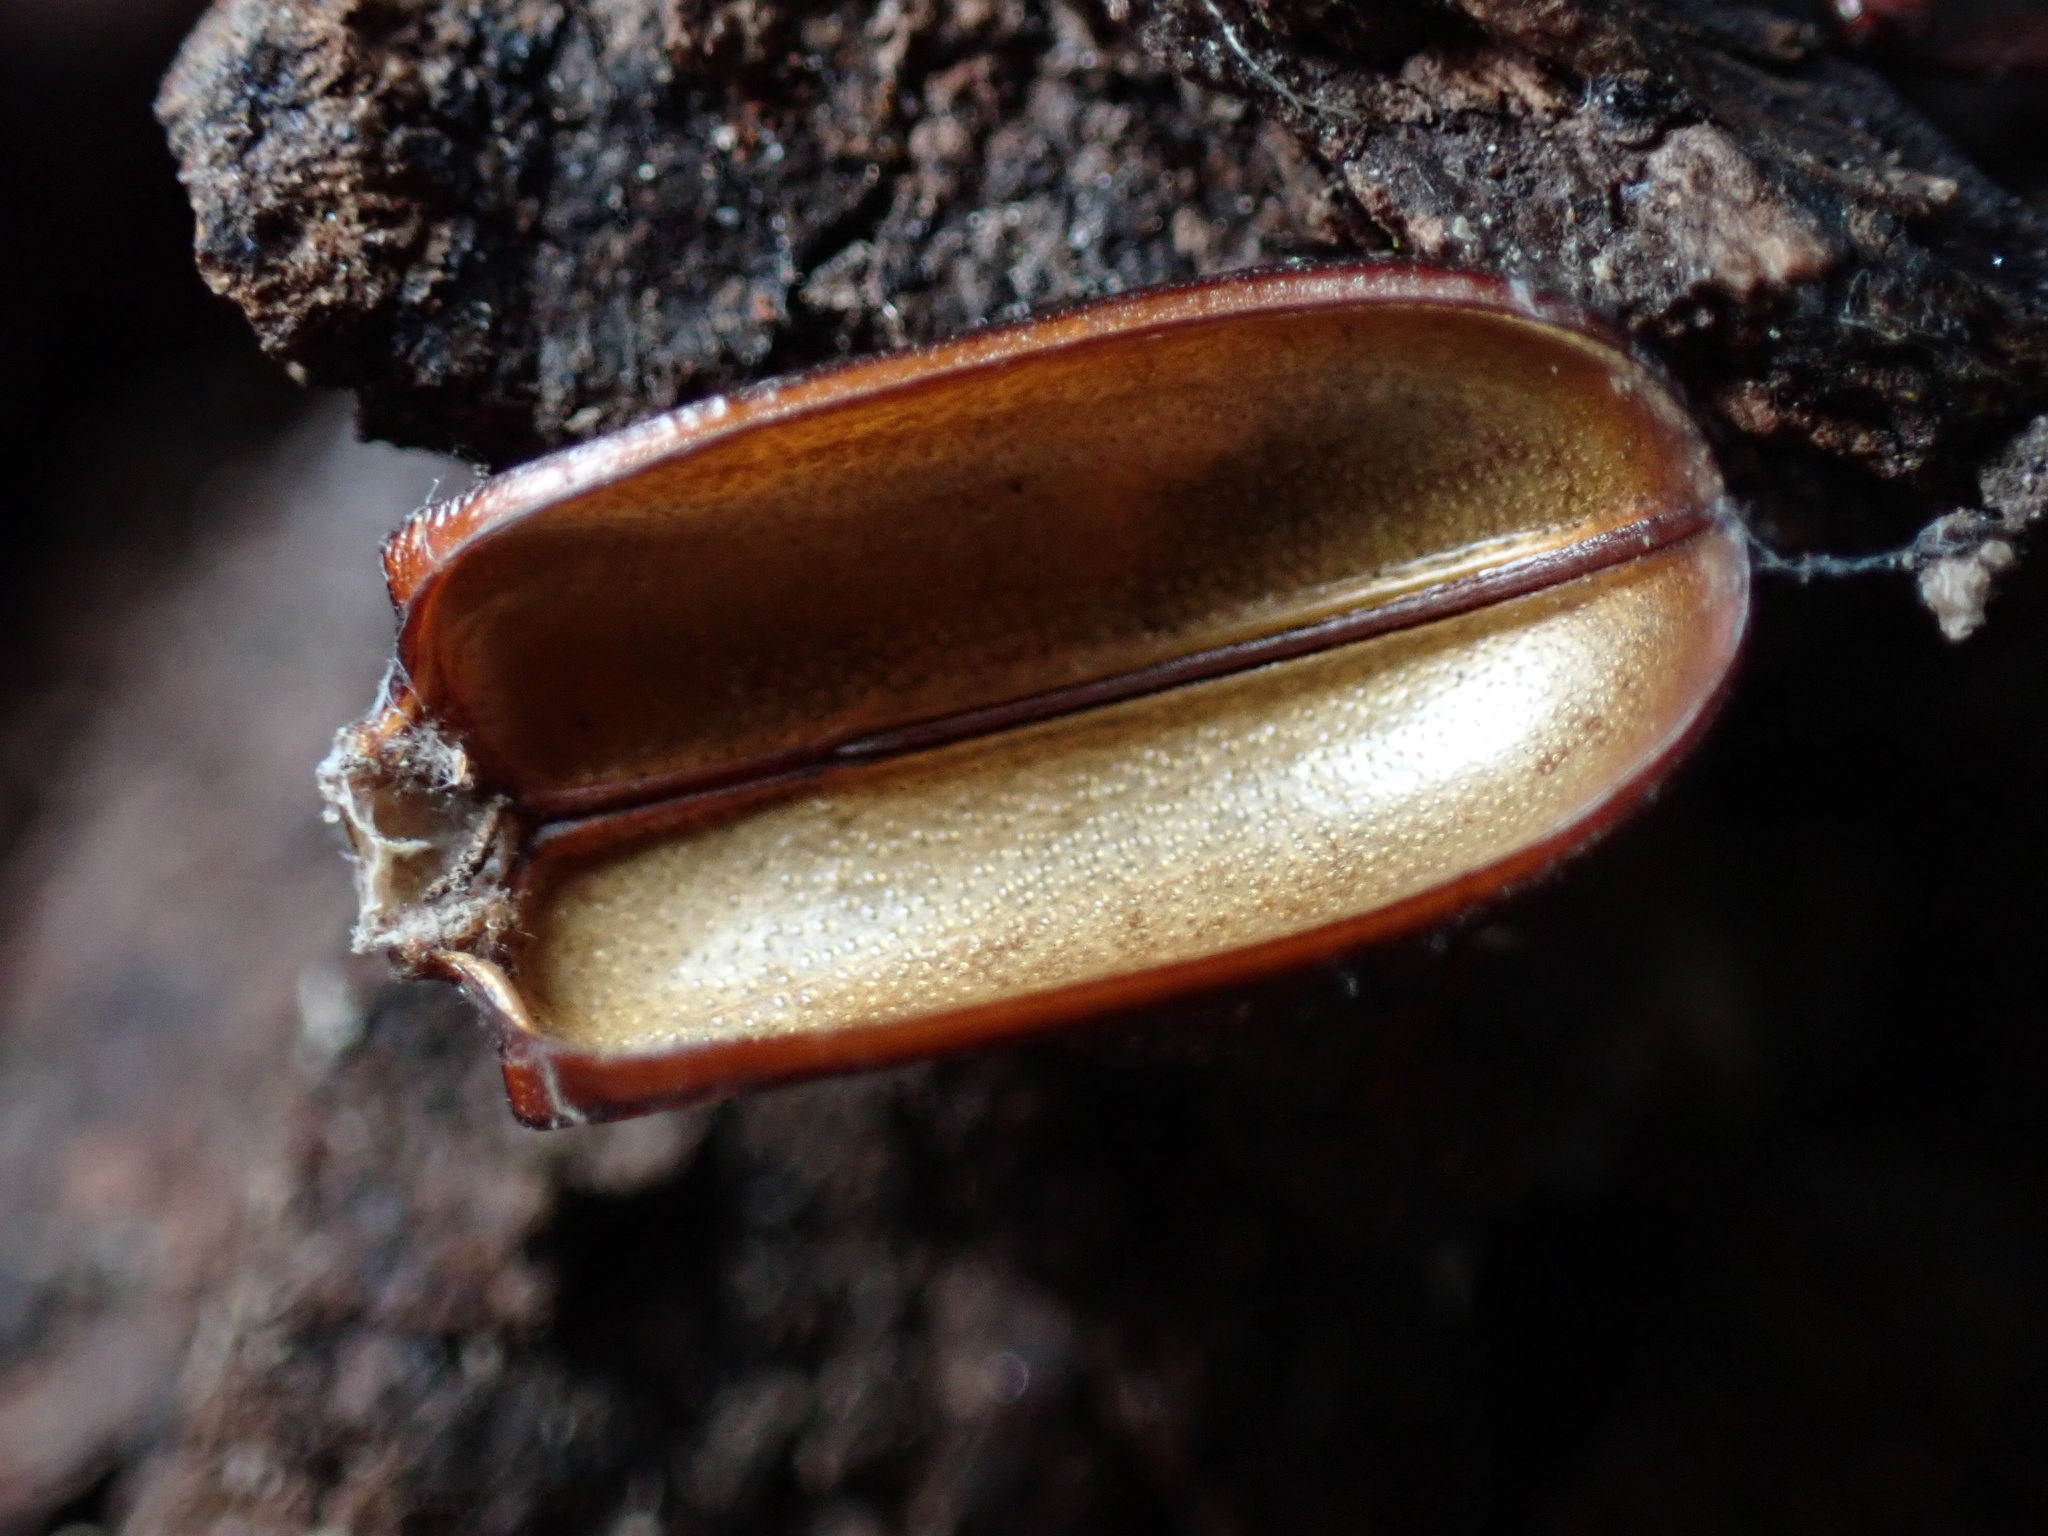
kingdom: Animalia
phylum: Arthropoda
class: Insecta
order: Coleoptera
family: Cerambycidae
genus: Neandra
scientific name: Neandra brunnea
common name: Pole borer
